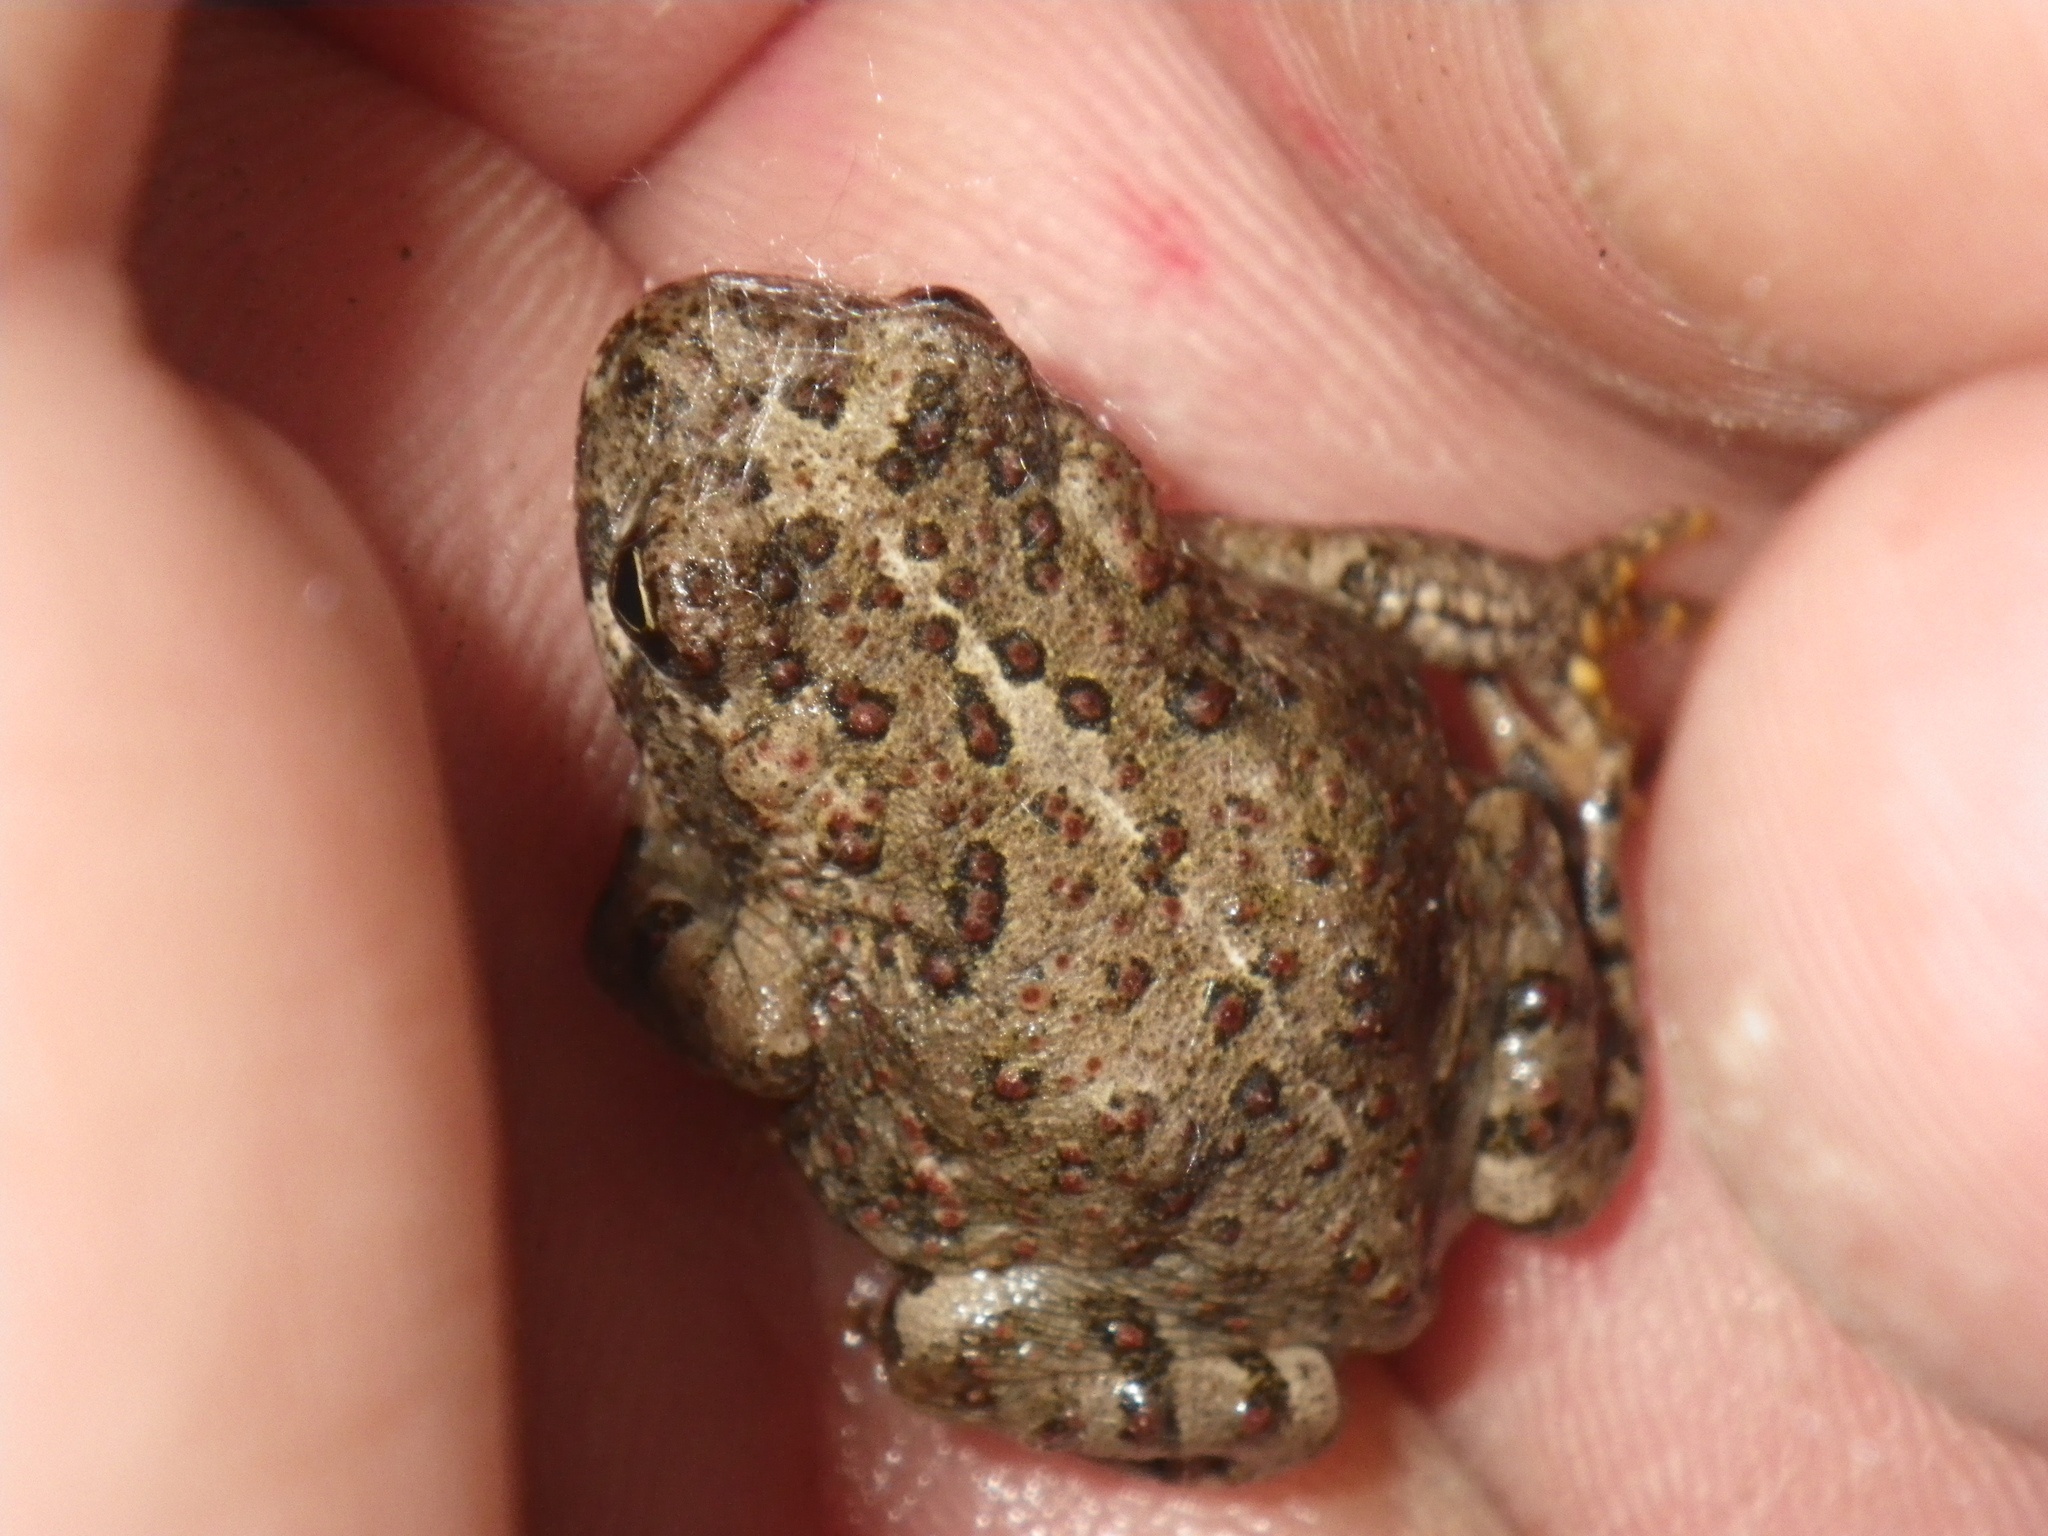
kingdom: Animalia
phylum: Chordata
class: Amphibia
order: Anura
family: Bufonidae
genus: Anaxyrus
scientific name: Anaxyrus boreas
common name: Western toad
